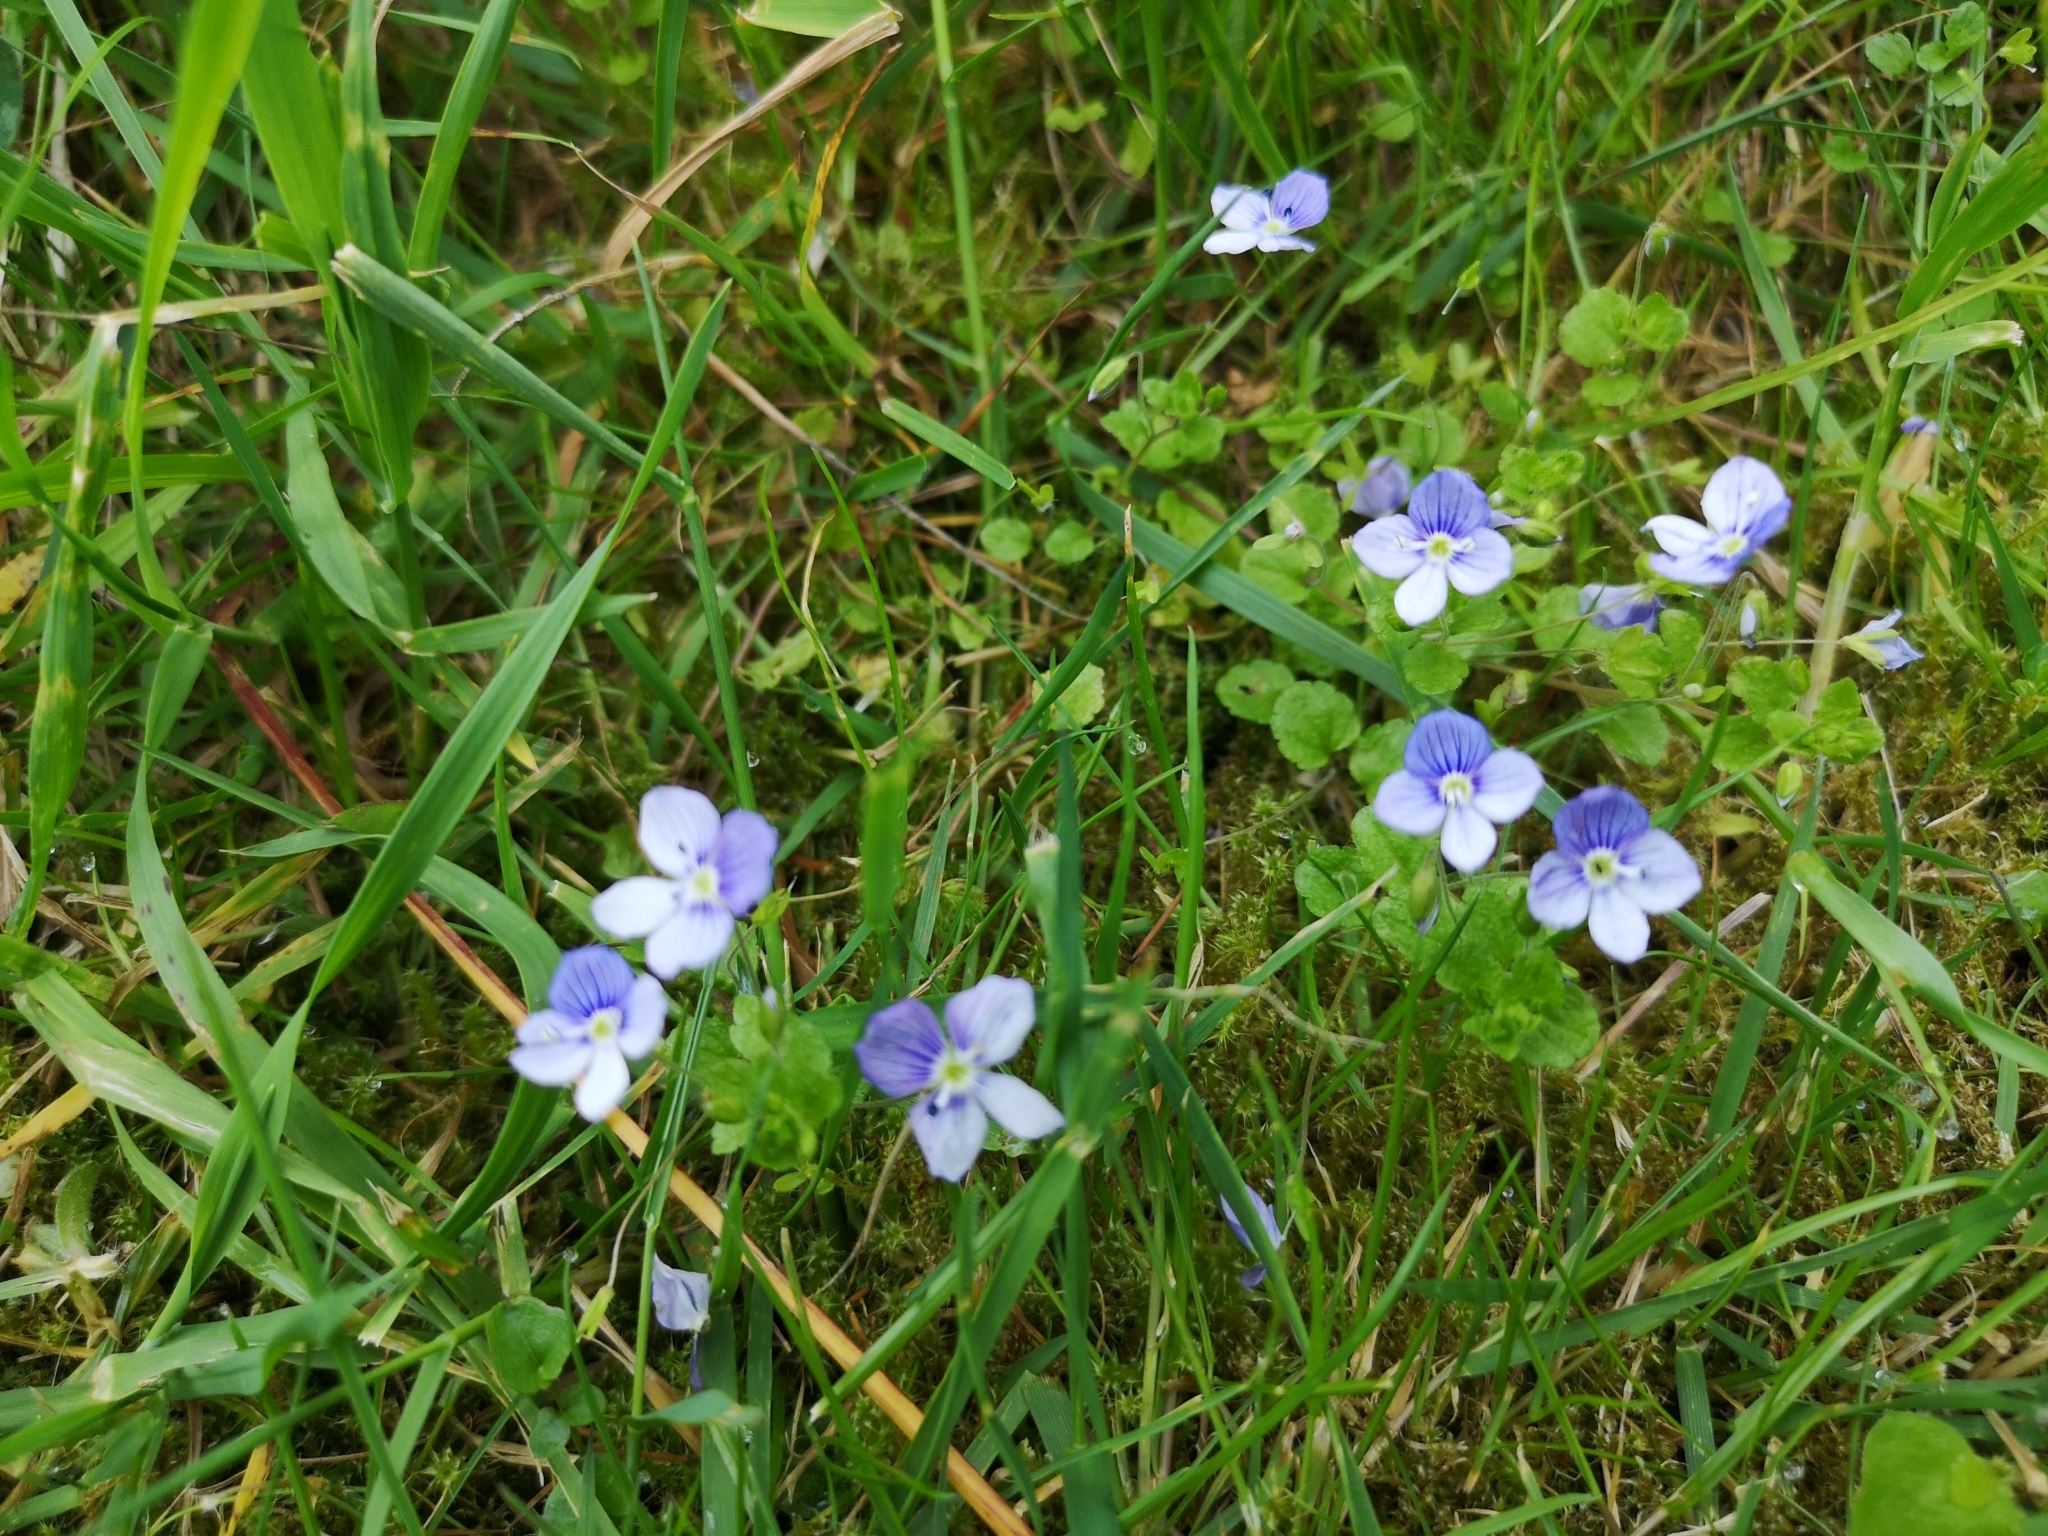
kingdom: Plantae
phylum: Tracheophyta
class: Magnoliopsida
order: Lamiales
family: Plantaginaceae
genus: Veronica
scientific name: Veronica filiformis
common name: Slender speedwell
